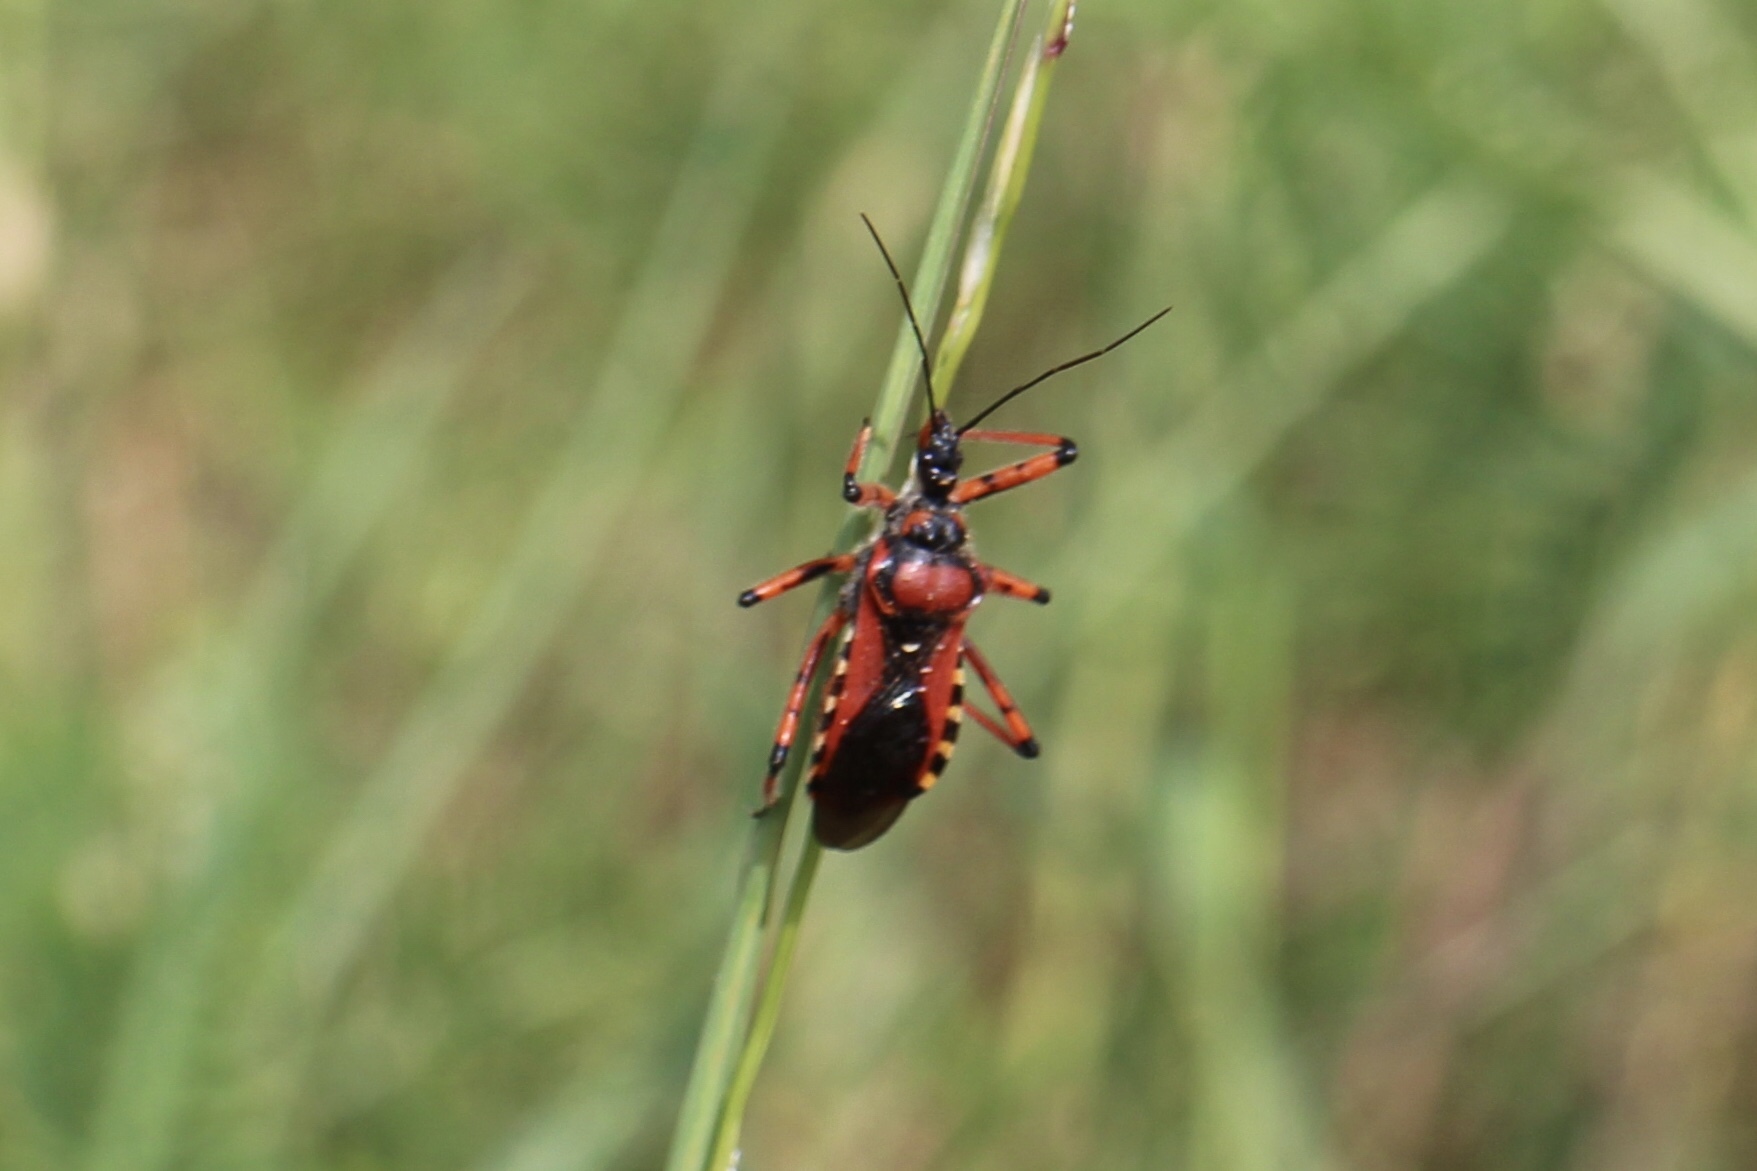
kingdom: Animalia
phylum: Arthropoda
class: Insecta
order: Hemiptera
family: Reduviidae
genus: Rhynocoris
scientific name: Rhynocoris iracundus
